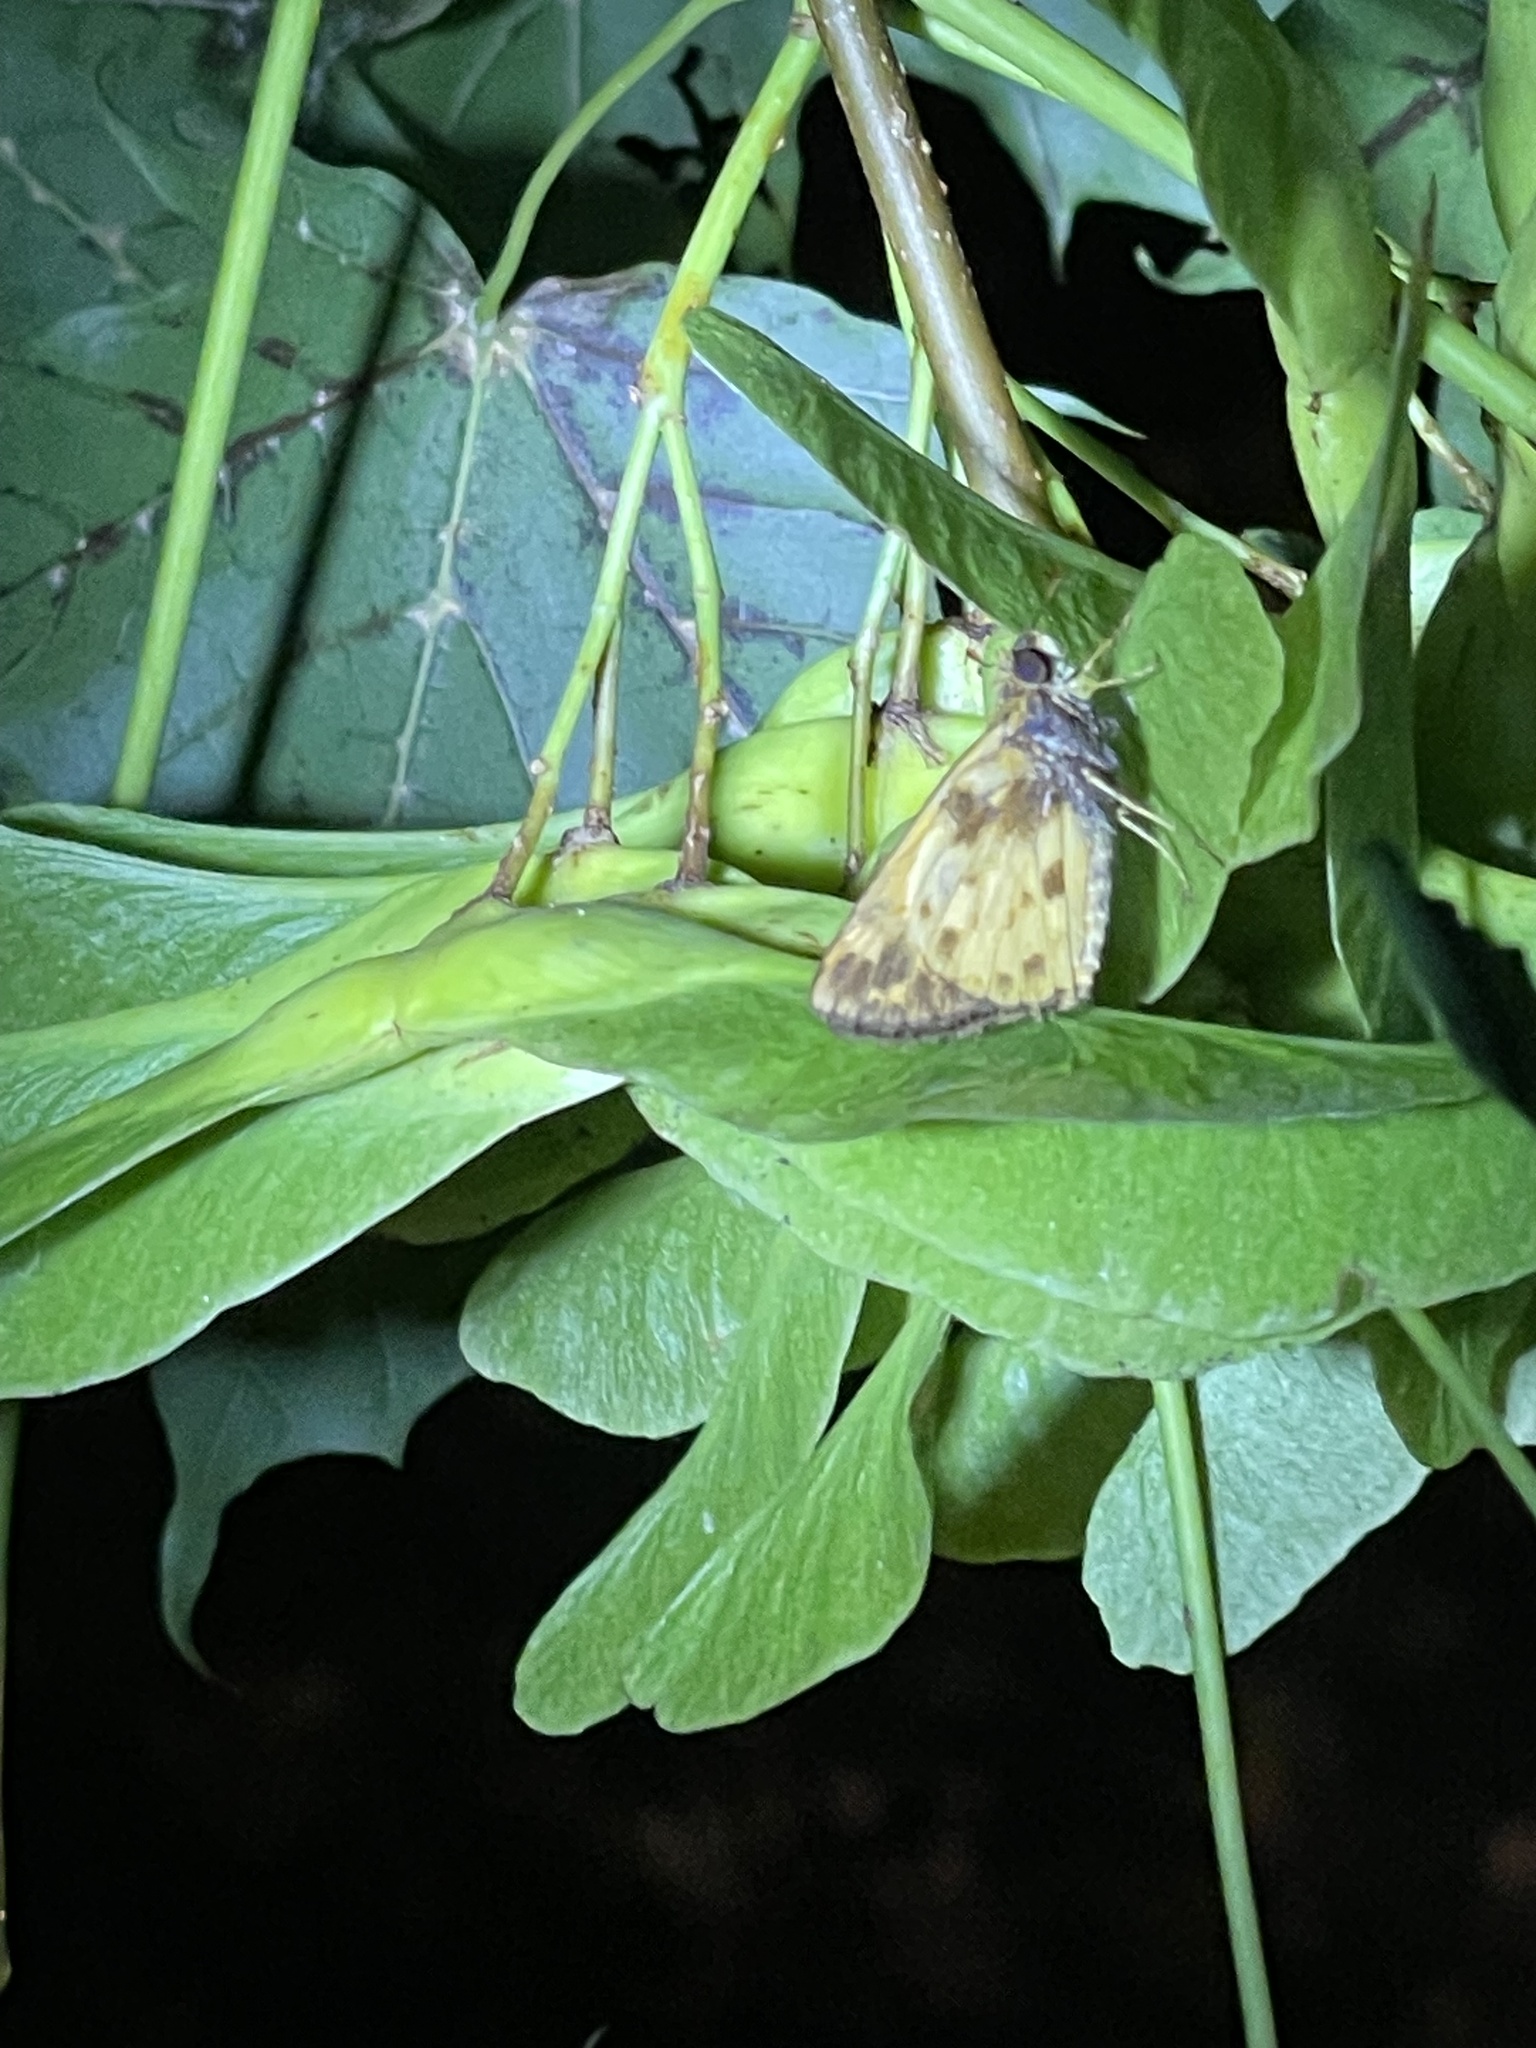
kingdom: Animalia
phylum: Arthropoda
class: Insecta
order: Lepidoptera
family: Hesperiidae
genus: Lon
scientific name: Lon zabulon
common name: Zabulon skipper
